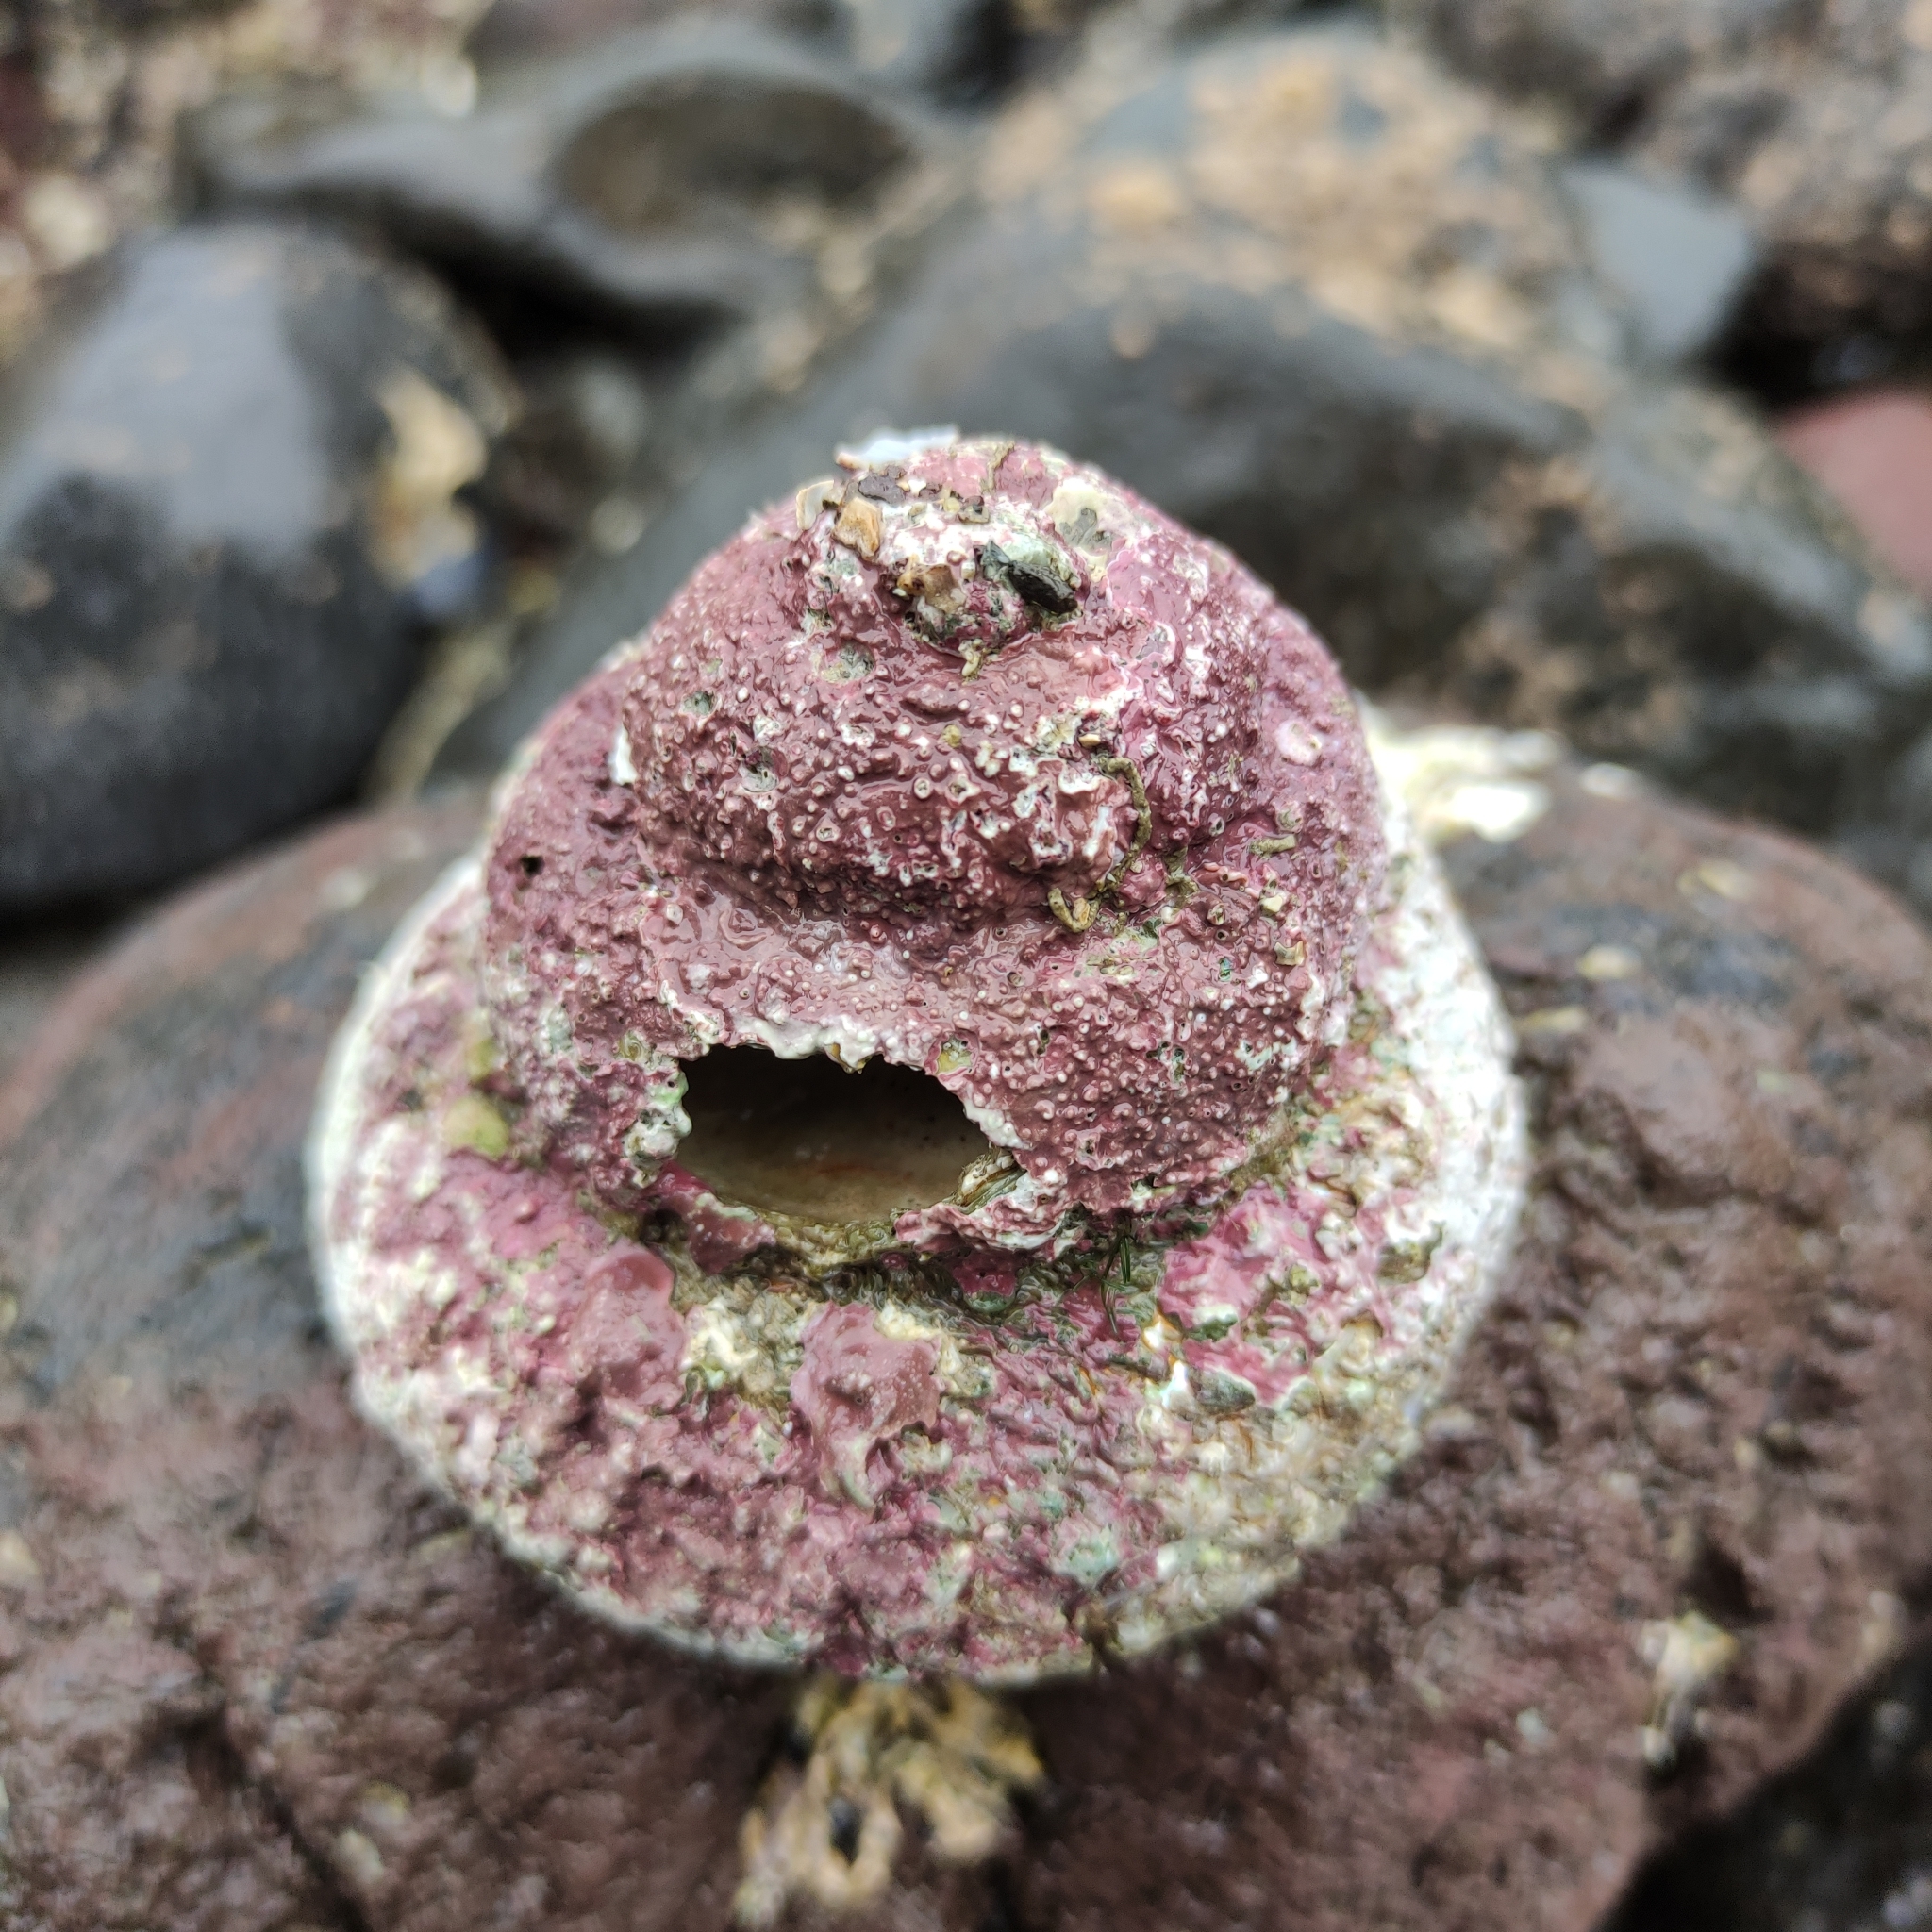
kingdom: Animalia
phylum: Mollusca
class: Gastropoda
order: Trochida
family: Turbinidae
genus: Cookia
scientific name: Cookia sulcata
